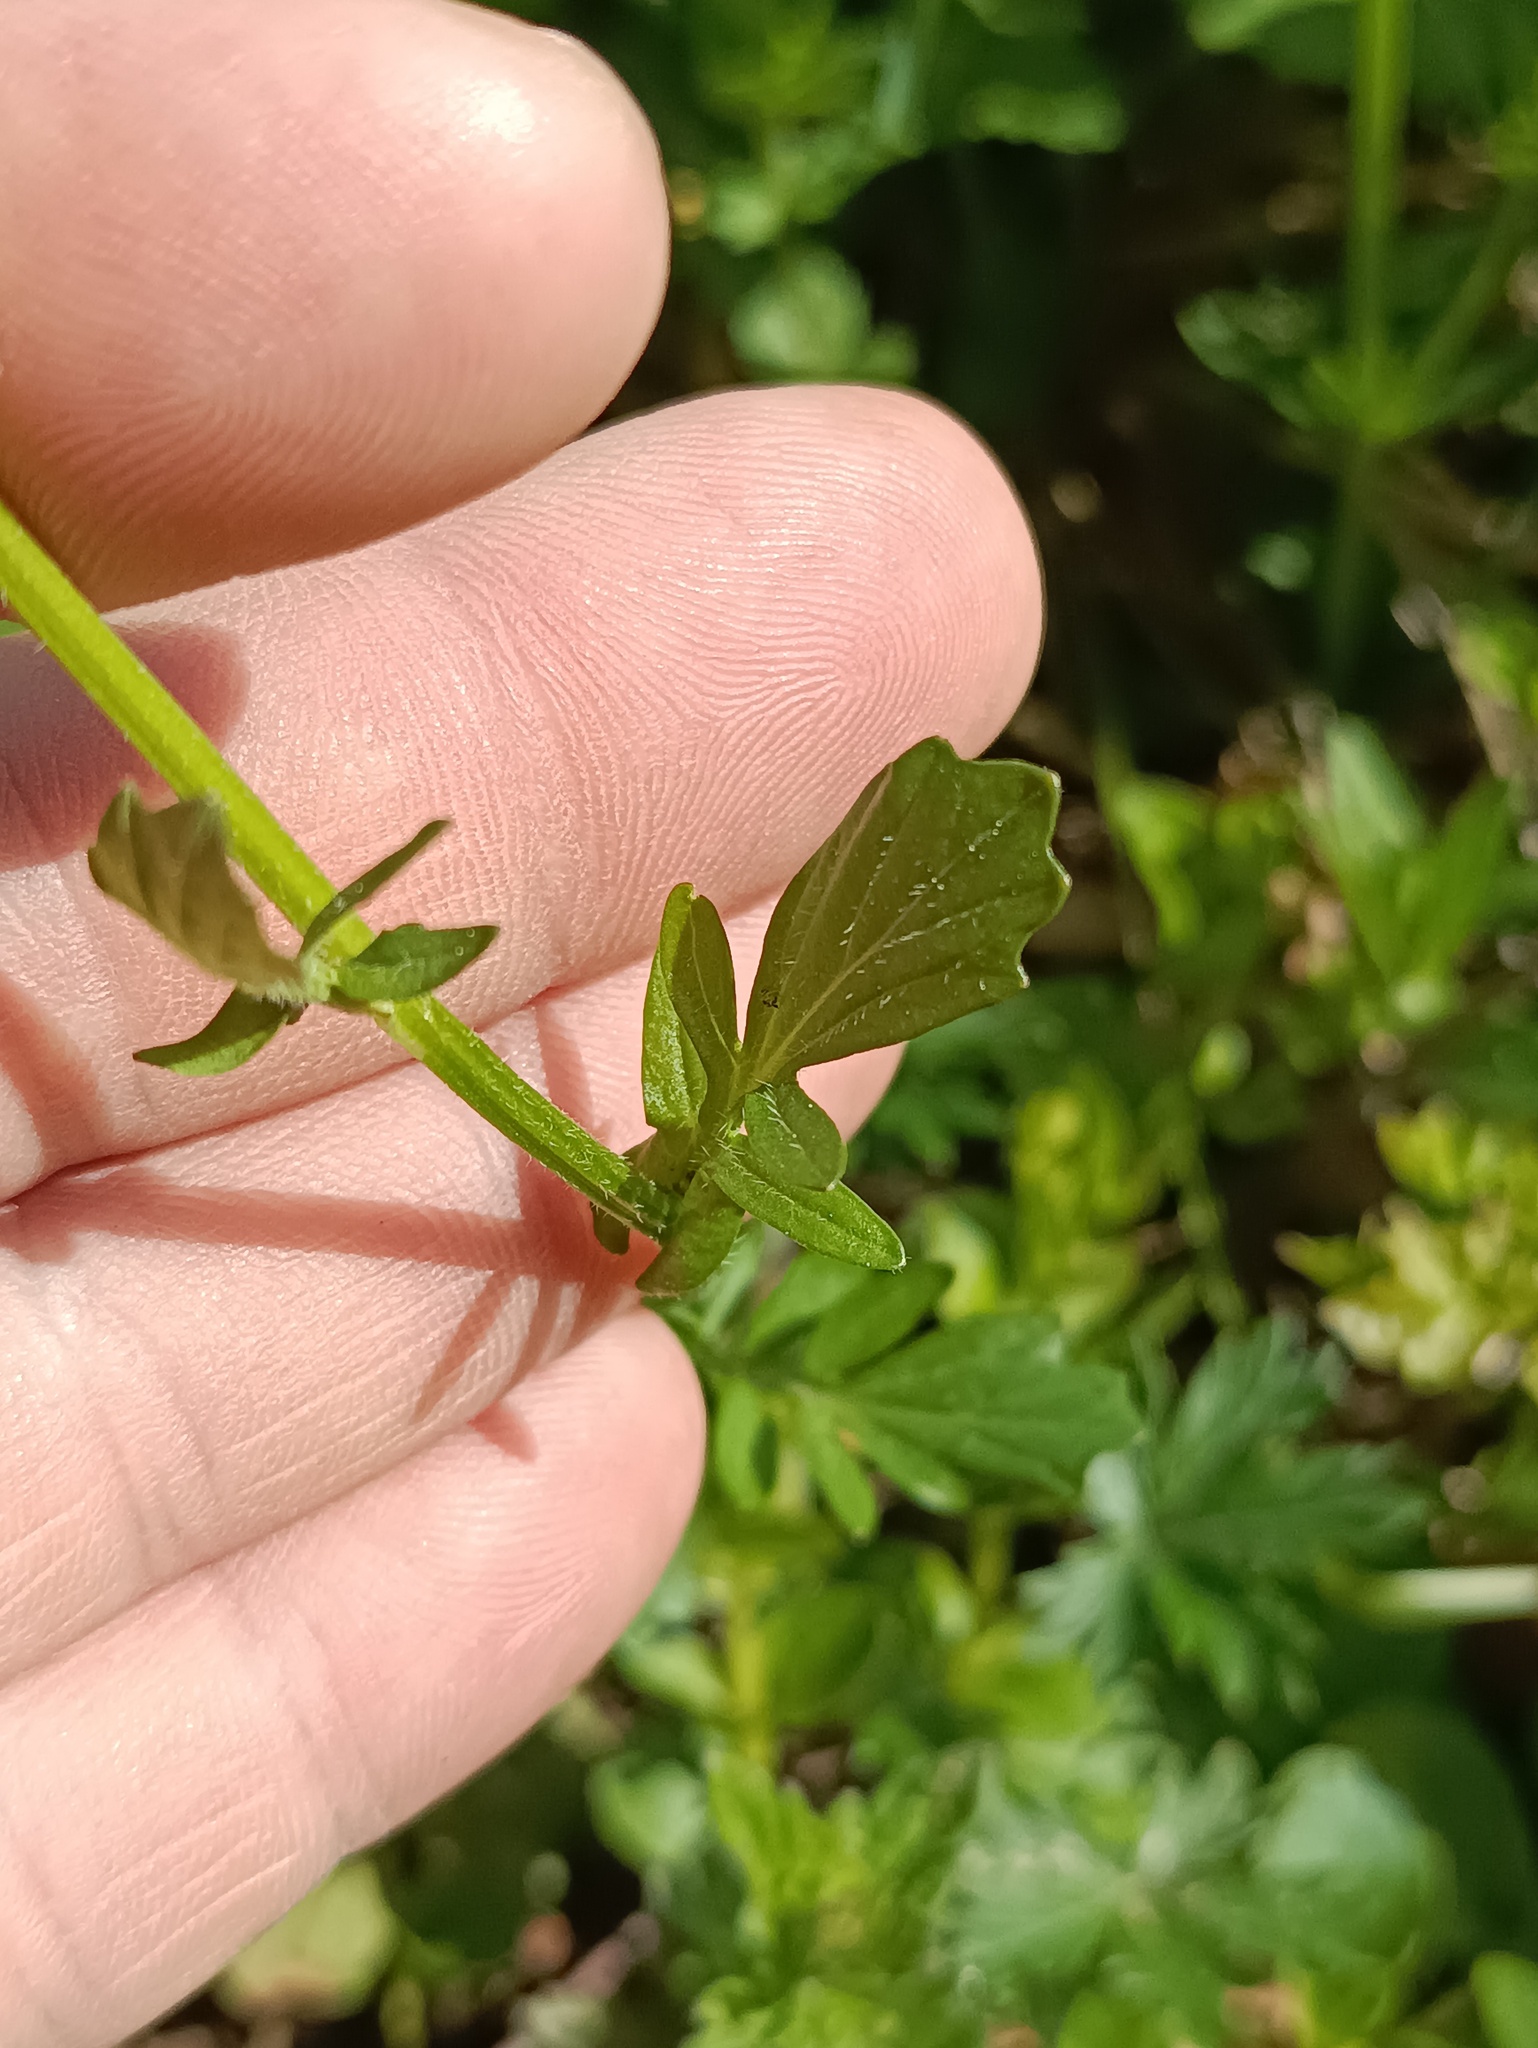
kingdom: Plantae
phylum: Tracheophyta
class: Magnoliopsida
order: Brassicales
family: Brassicaceae
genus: Barbarea
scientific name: Barbarea vulgaris
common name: Cressy-greens
